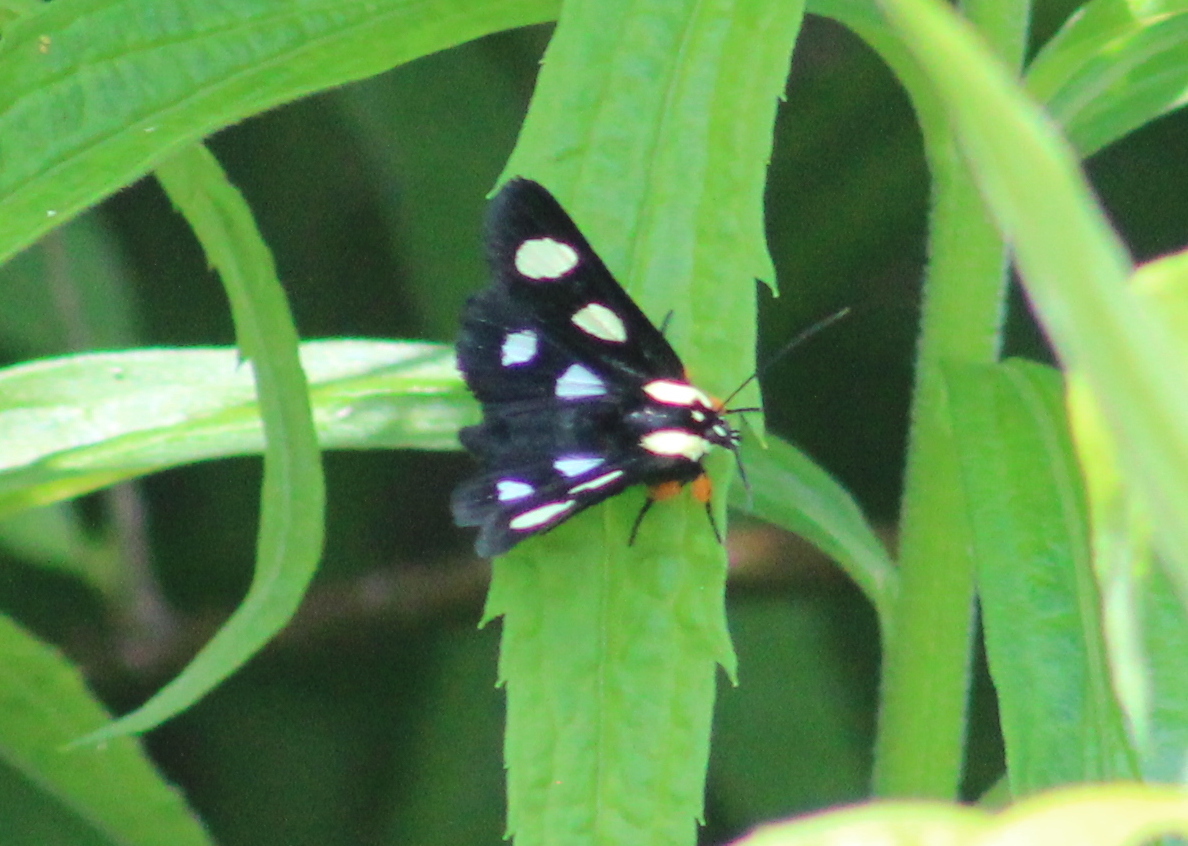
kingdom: Animalia
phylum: Arthropoda
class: Insecta
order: Lepidoptera
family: Noctuidae
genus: Alypia
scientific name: Alypia octomaculata
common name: Eight-spotted forester
